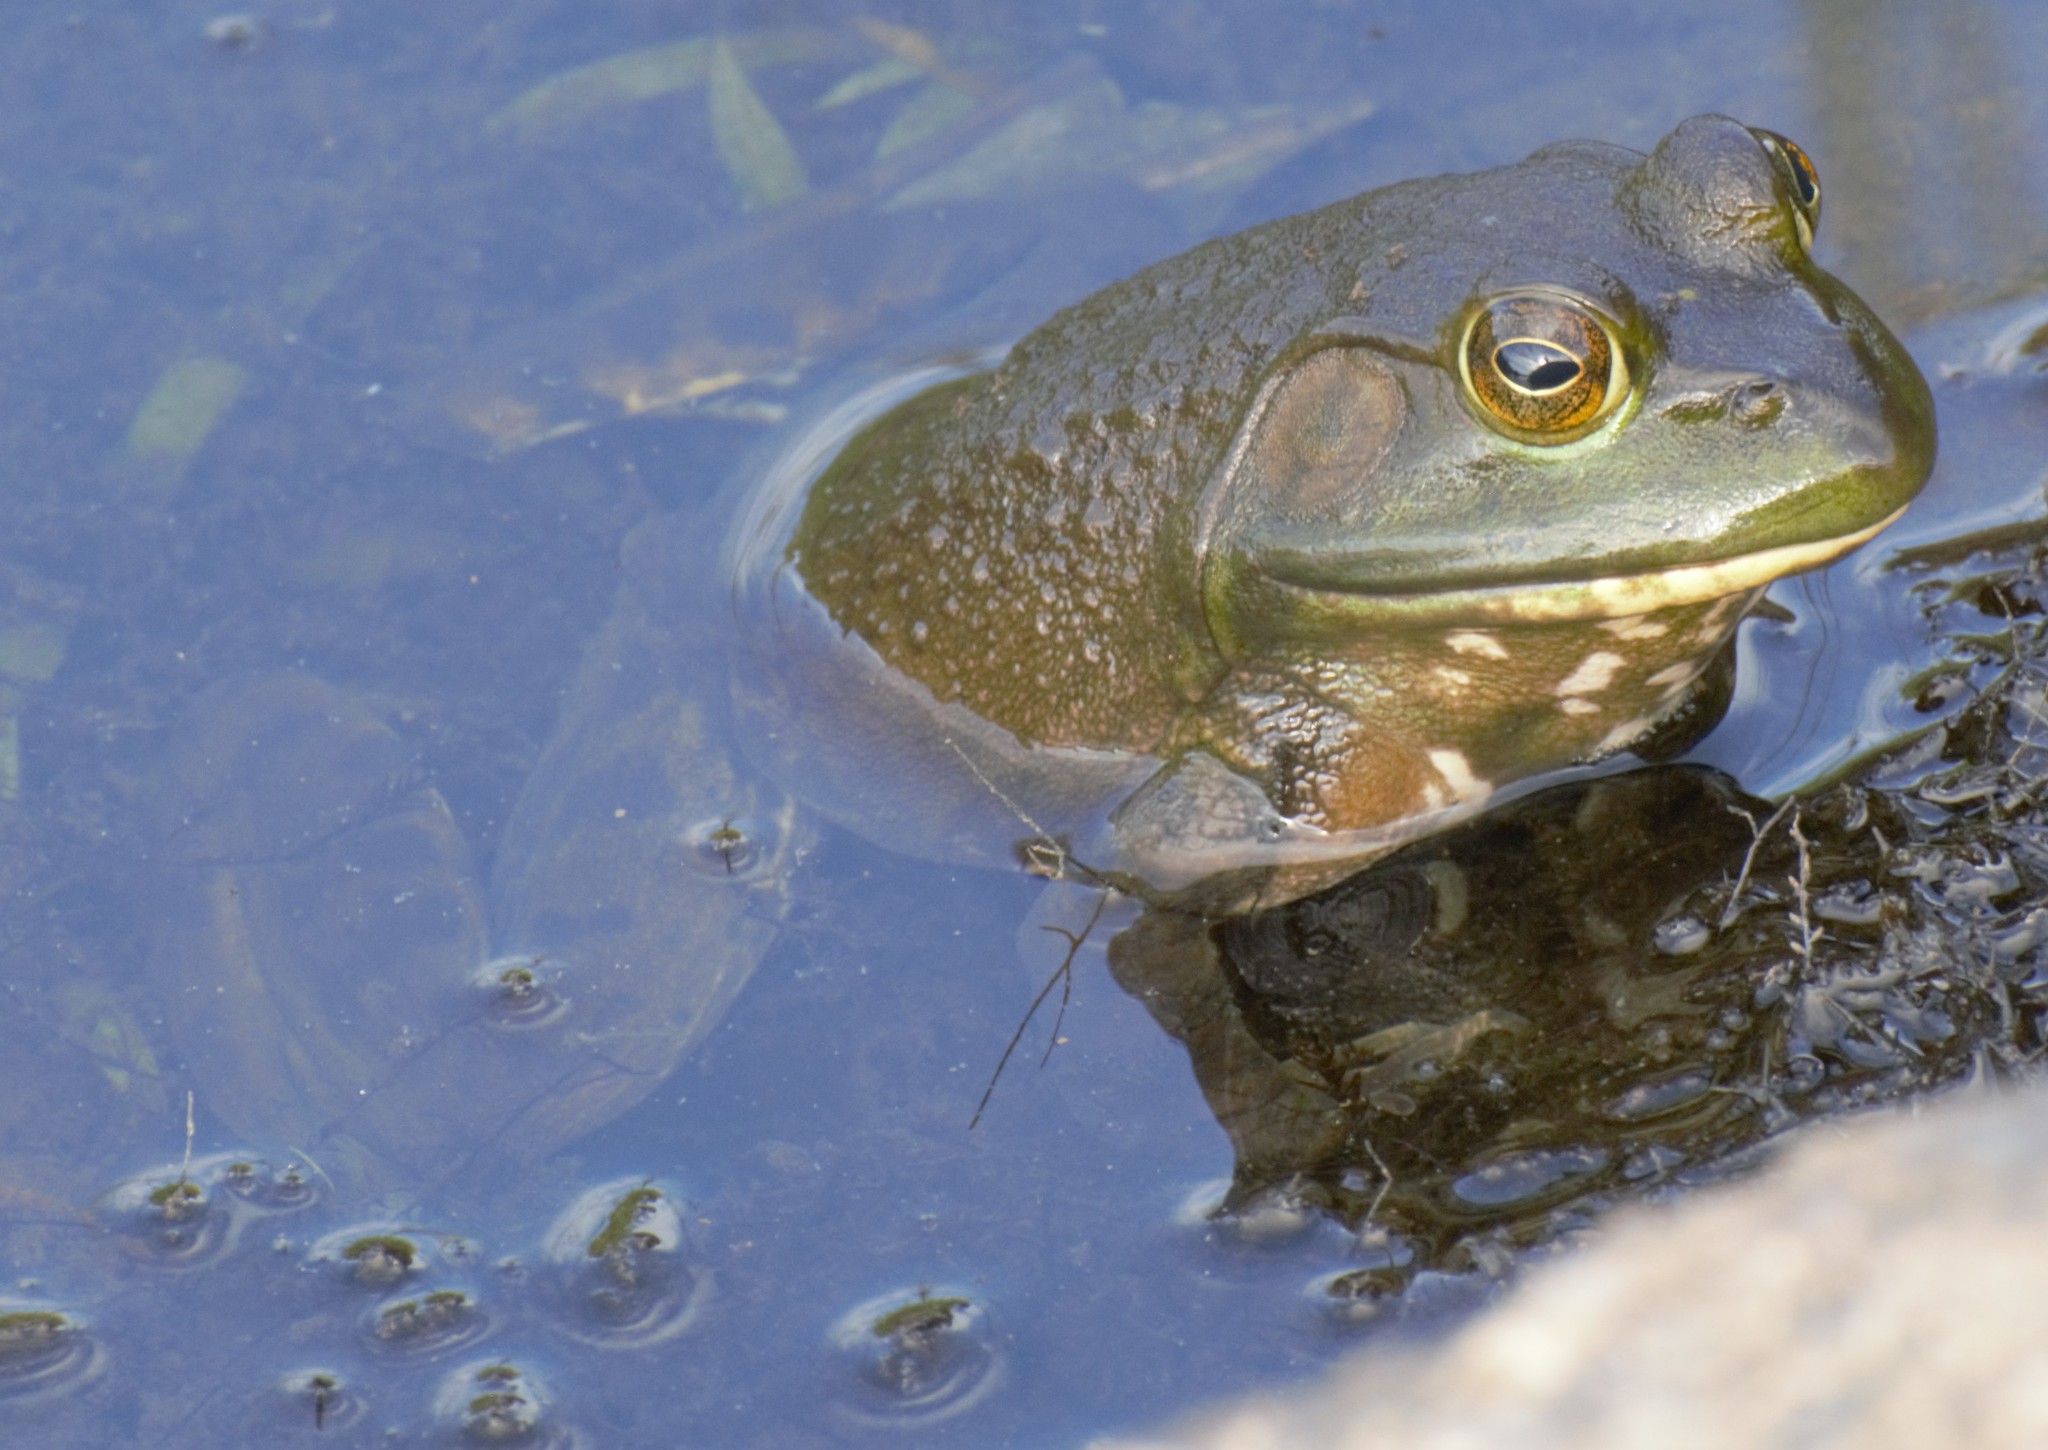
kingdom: Animalia
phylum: Chordata
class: Amphibia
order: Anura
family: Ranidae
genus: Lithobates
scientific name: Lithobates catesbeianus
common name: American bullfrog
